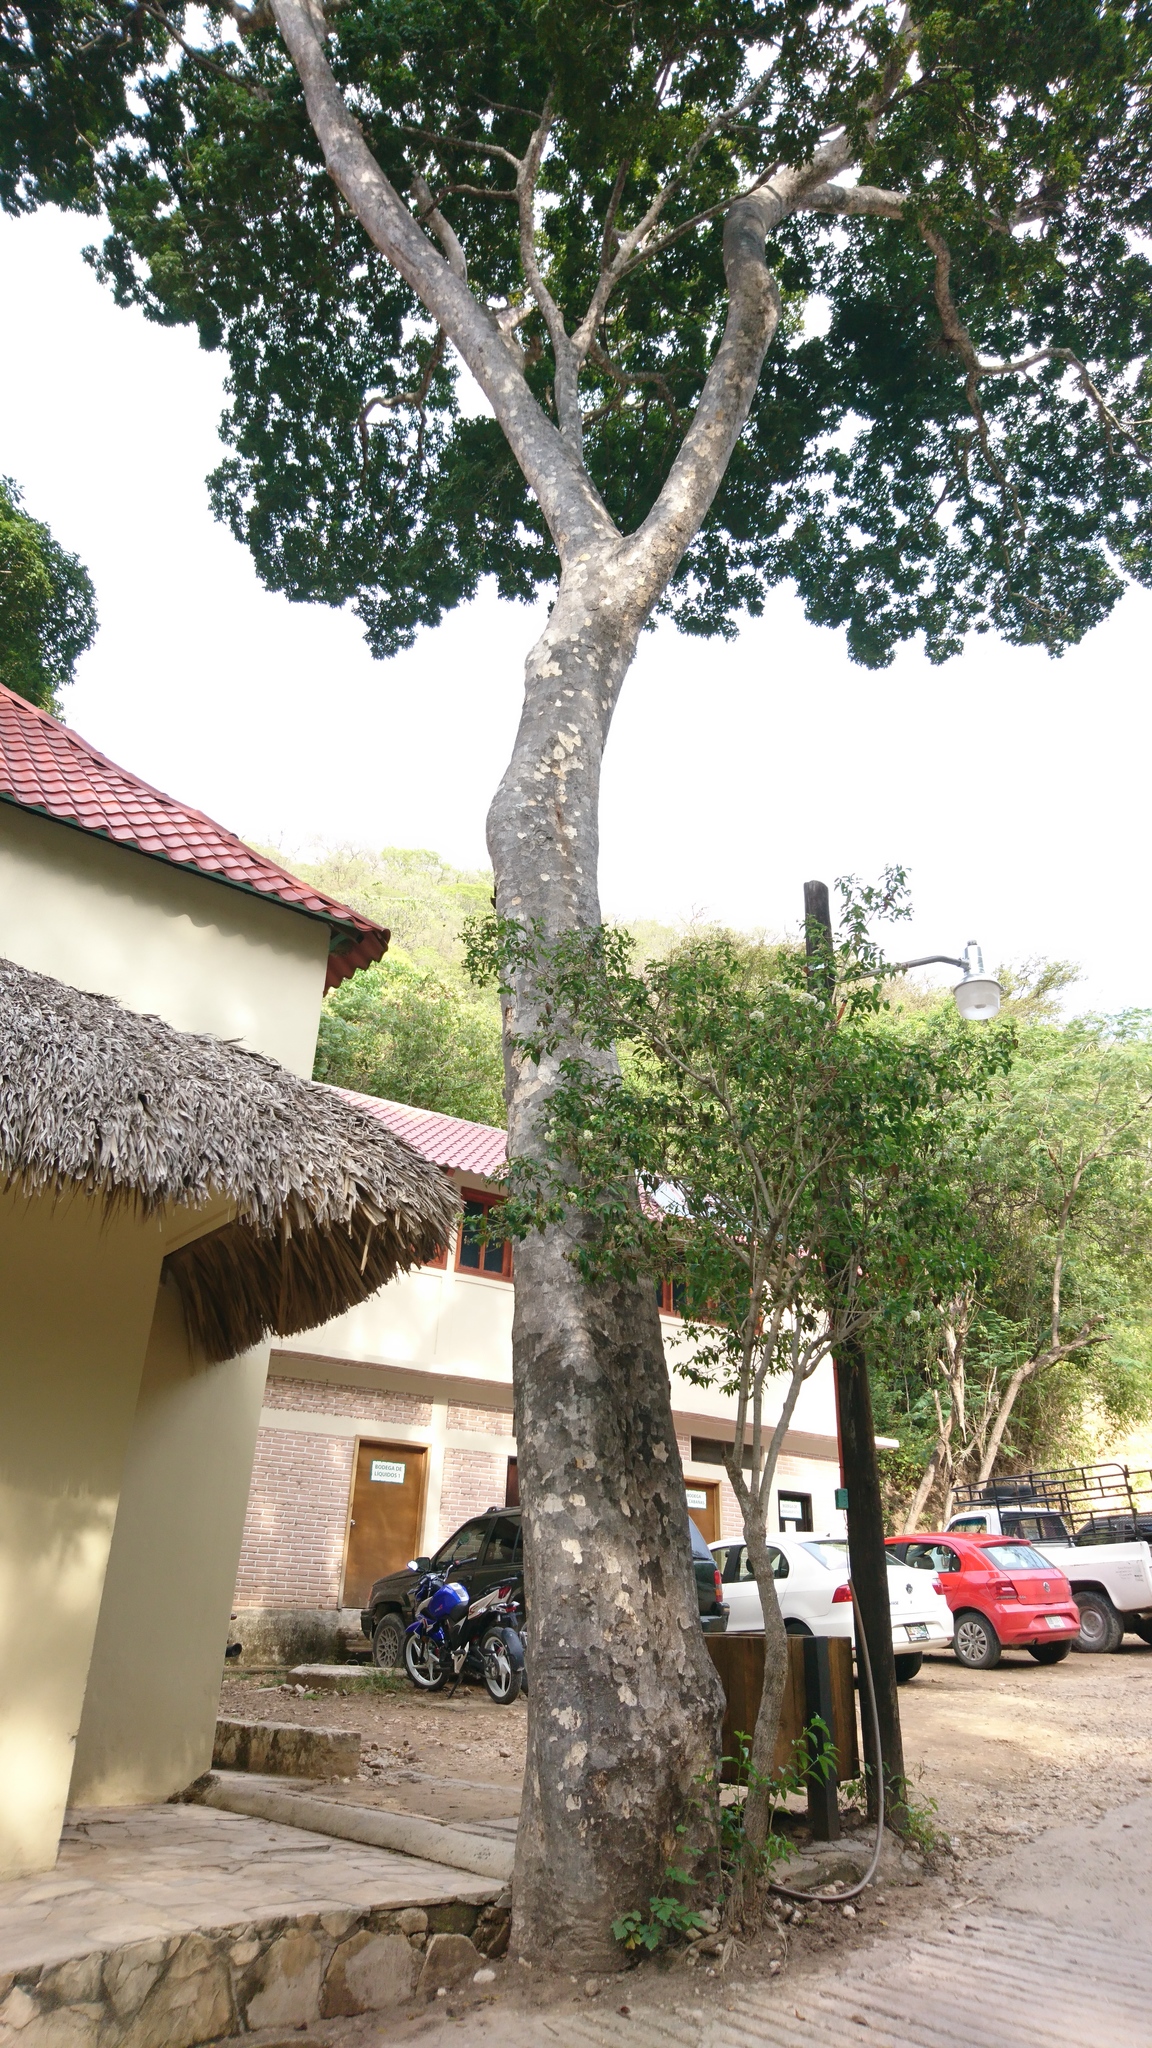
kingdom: Plantae
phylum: Tracheophyta
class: Magnoliopsida
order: Sapindales
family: Anacardiaceae
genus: Astronium
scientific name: Astronium graveolens
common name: Glassywood
